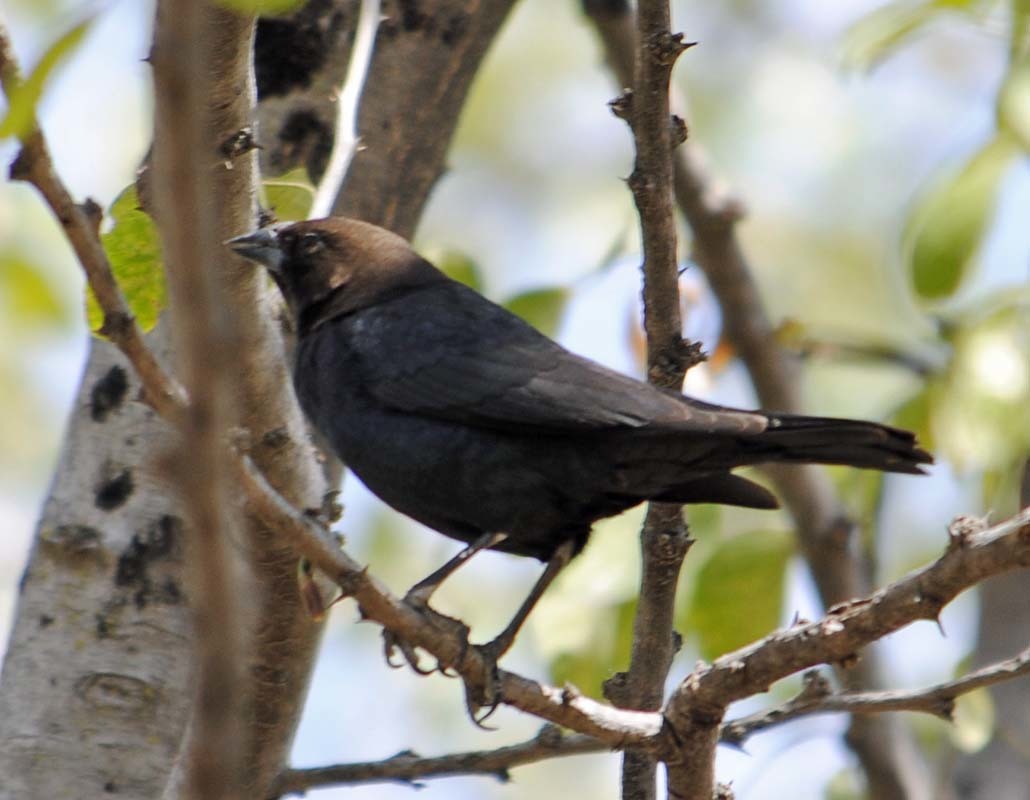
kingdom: Animalia
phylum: Chordata
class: Aves
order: Passeriformes
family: Icteridae
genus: Molothrus
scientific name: Molothrus ater
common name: Brown-headed cowbird
